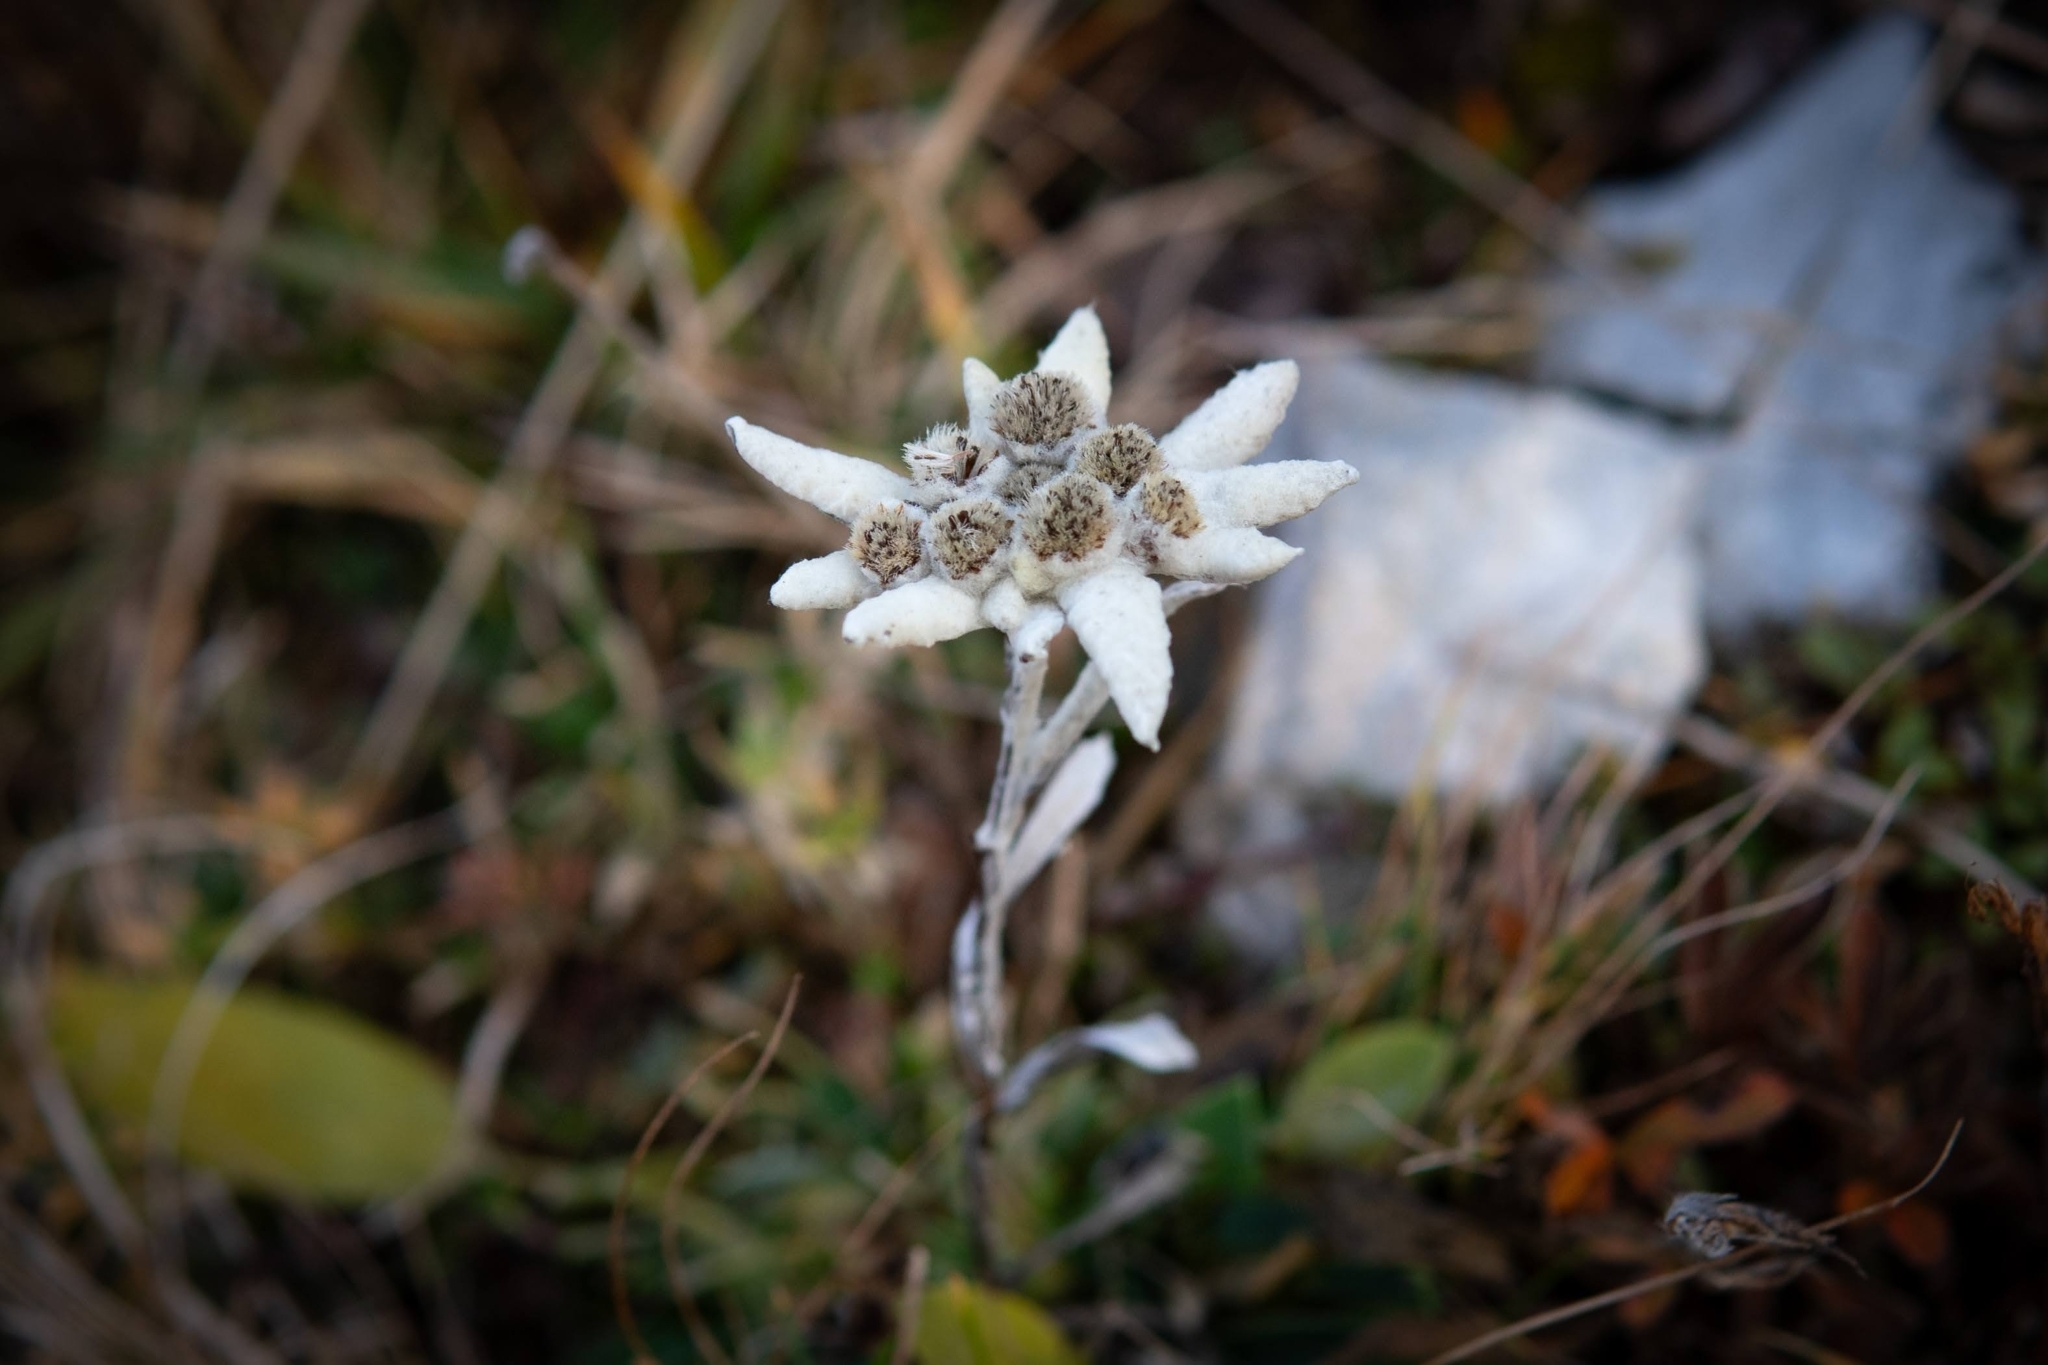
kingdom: Plantae
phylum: Tracheophyta
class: Magnoliopsida
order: Asterales
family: Asteraceae
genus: Leontopodium
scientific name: Leontopodium nivale
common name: Edelweiss
